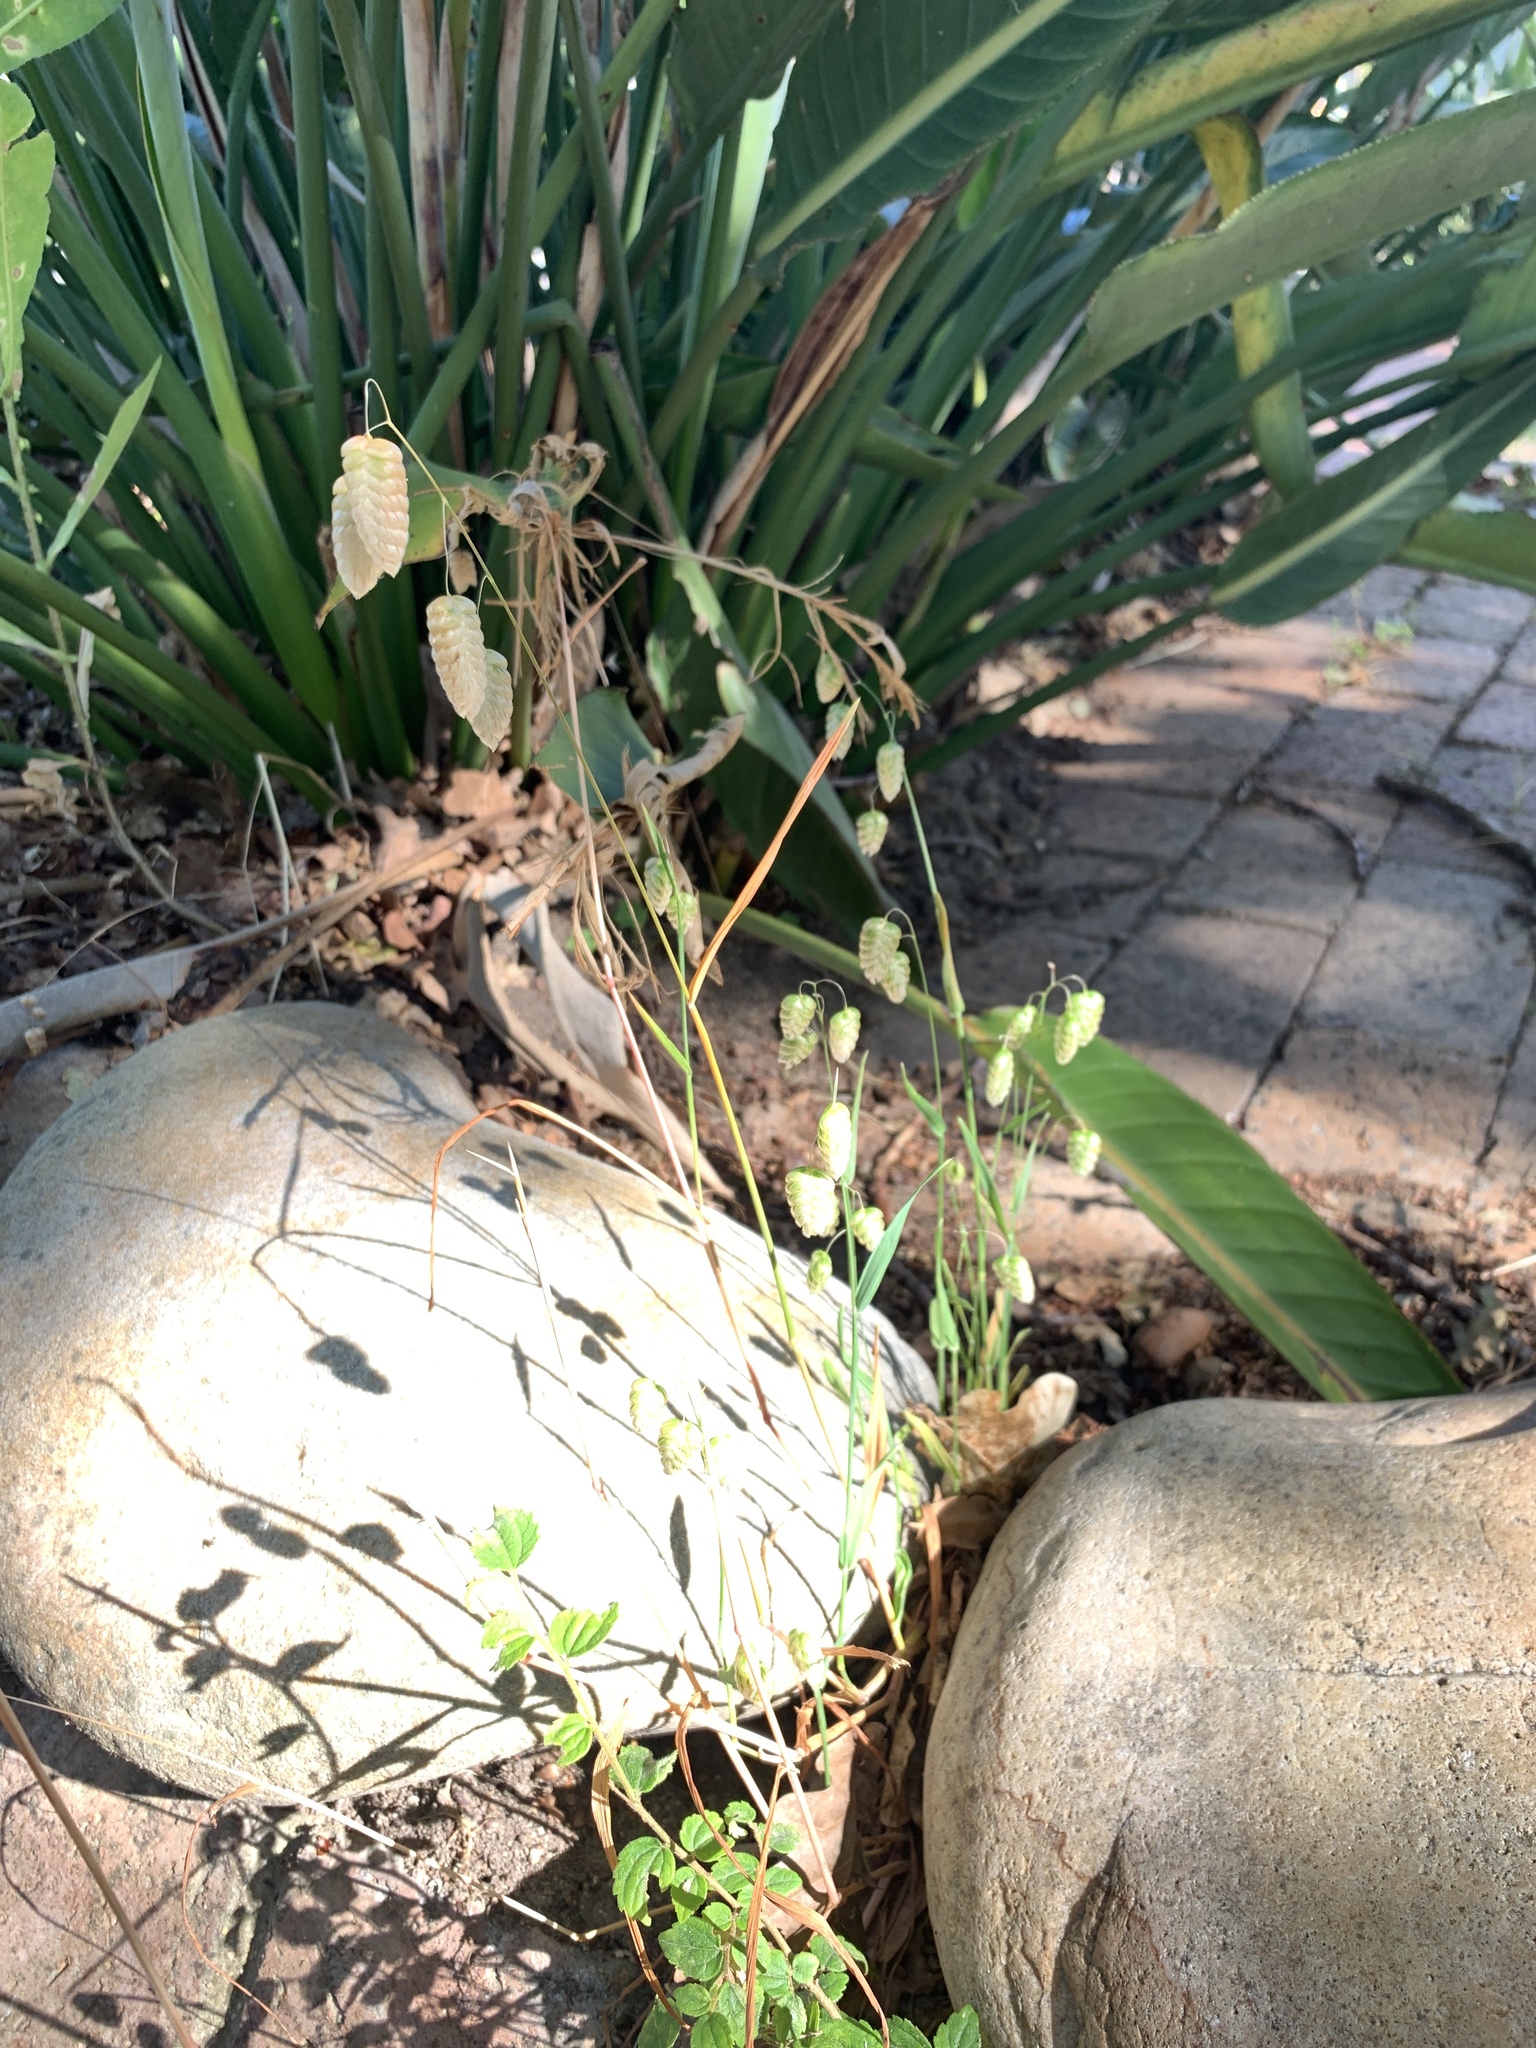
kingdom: Plantae
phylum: Tracheophyta
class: Liliopsida
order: Poales
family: Poaceae
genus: Briza
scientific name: Briza maxima
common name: Big quakinggrass
